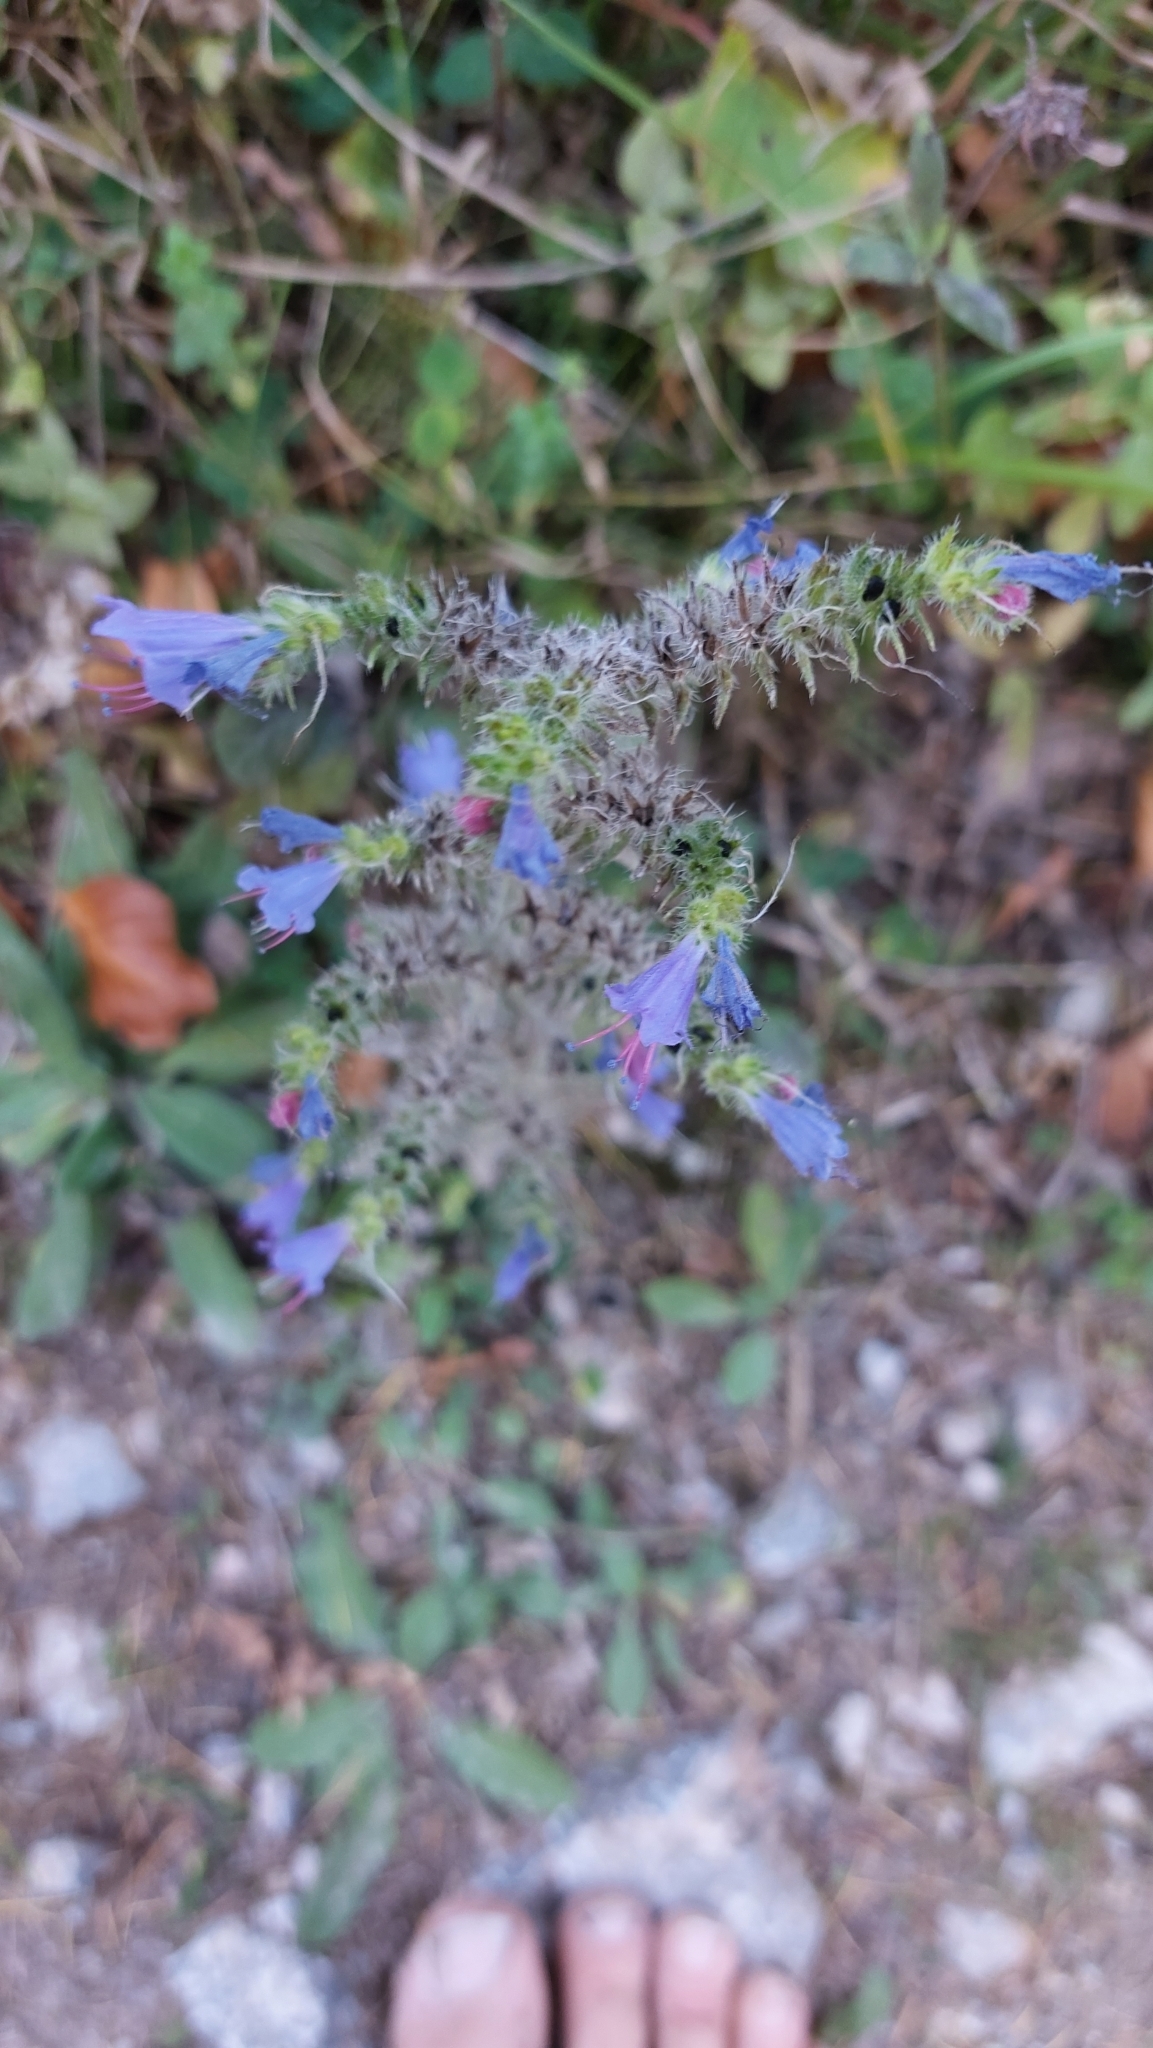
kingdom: Plantae
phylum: Tracheophyta
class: Magnoliopsida
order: Boraginales
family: Boraginaceae
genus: Echium
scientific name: Echium vulgare
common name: Common viper's bugloss
